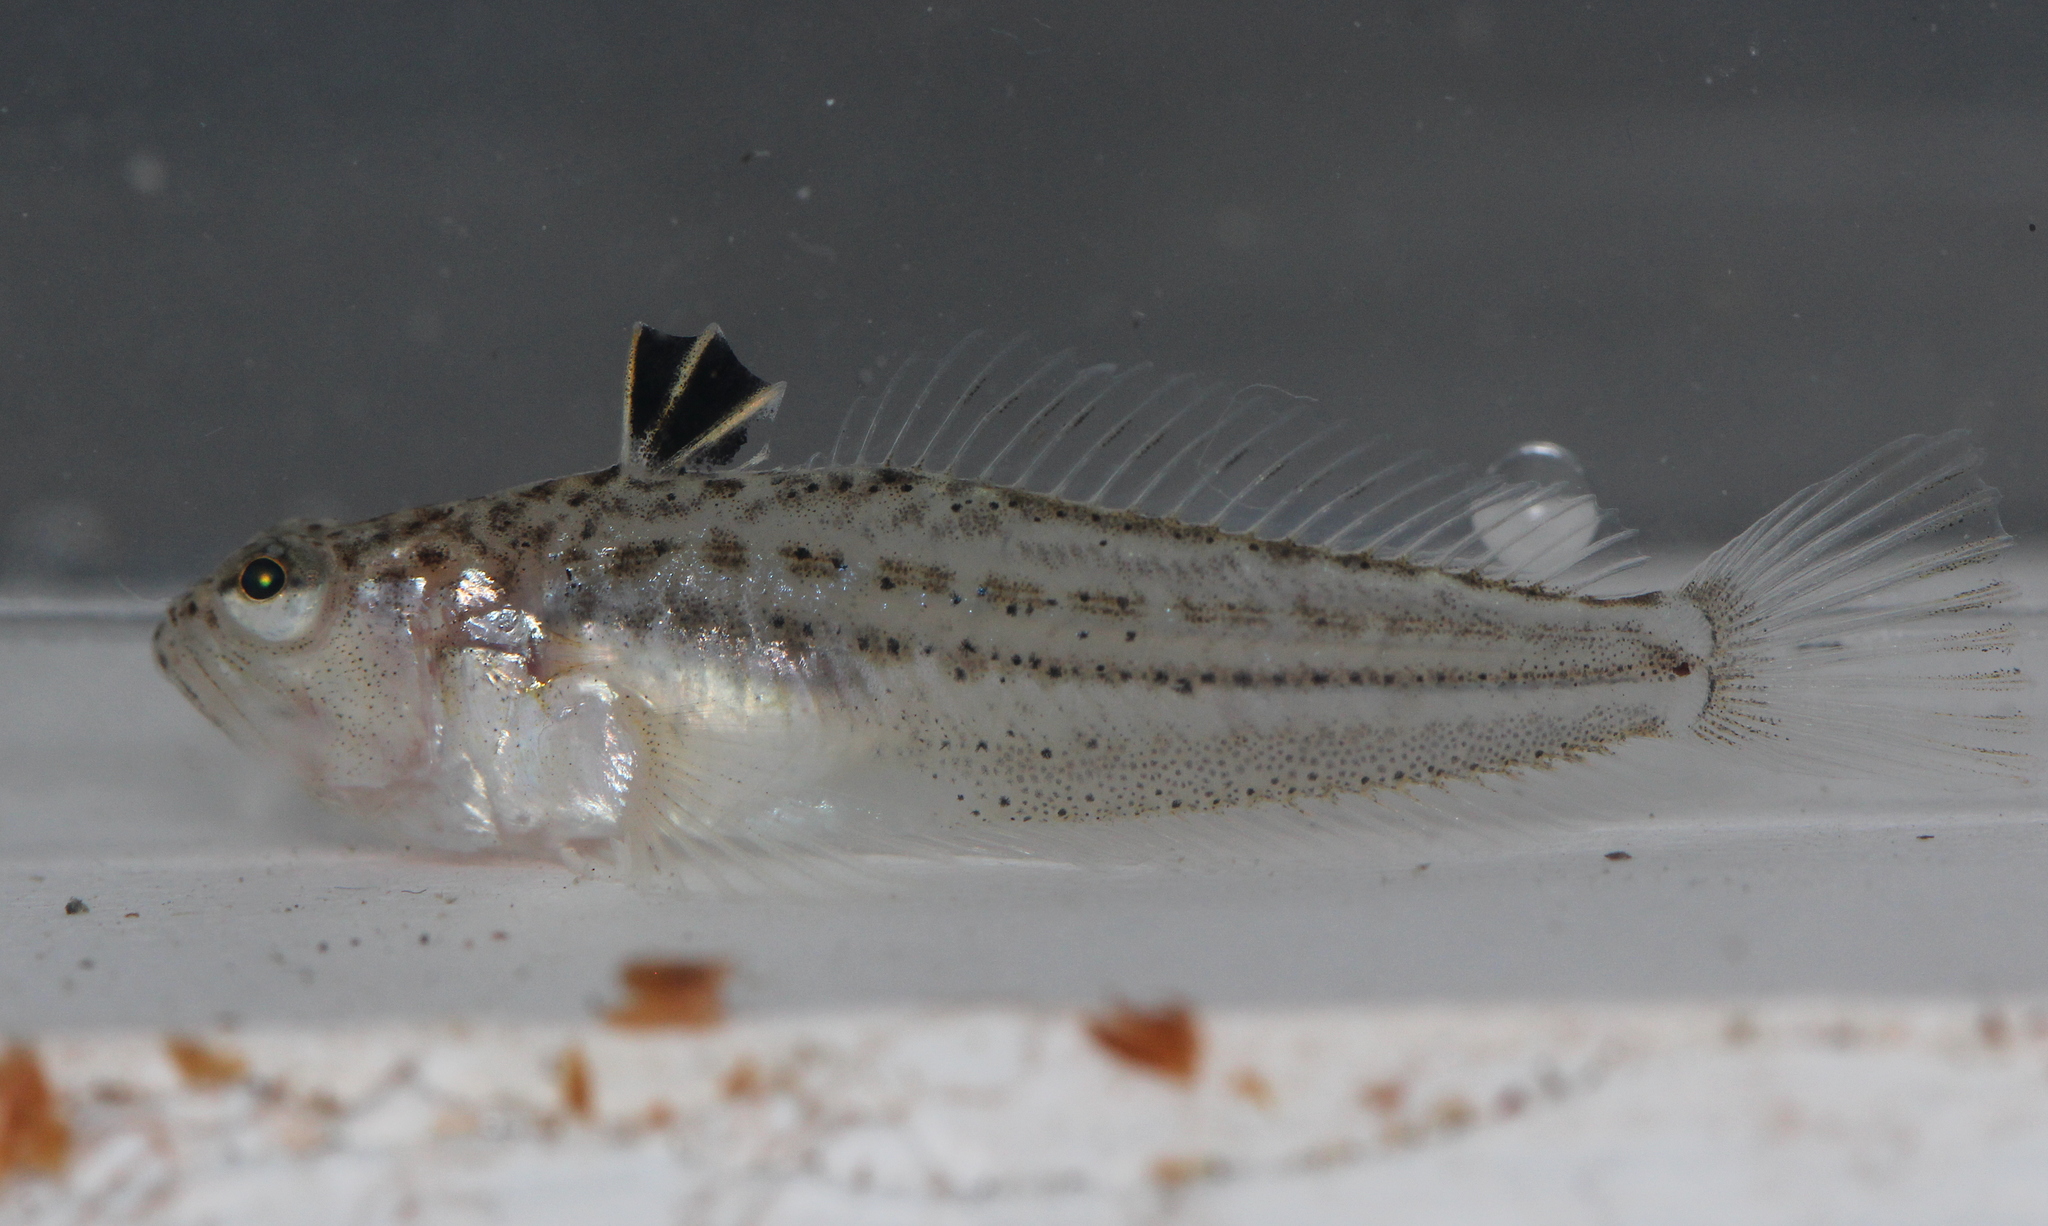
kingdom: Animalia
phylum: Chordata
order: Perciformes
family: Trachinidae
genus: Echiichthys
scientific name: Echiichthys vipera
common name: Lesser weever
